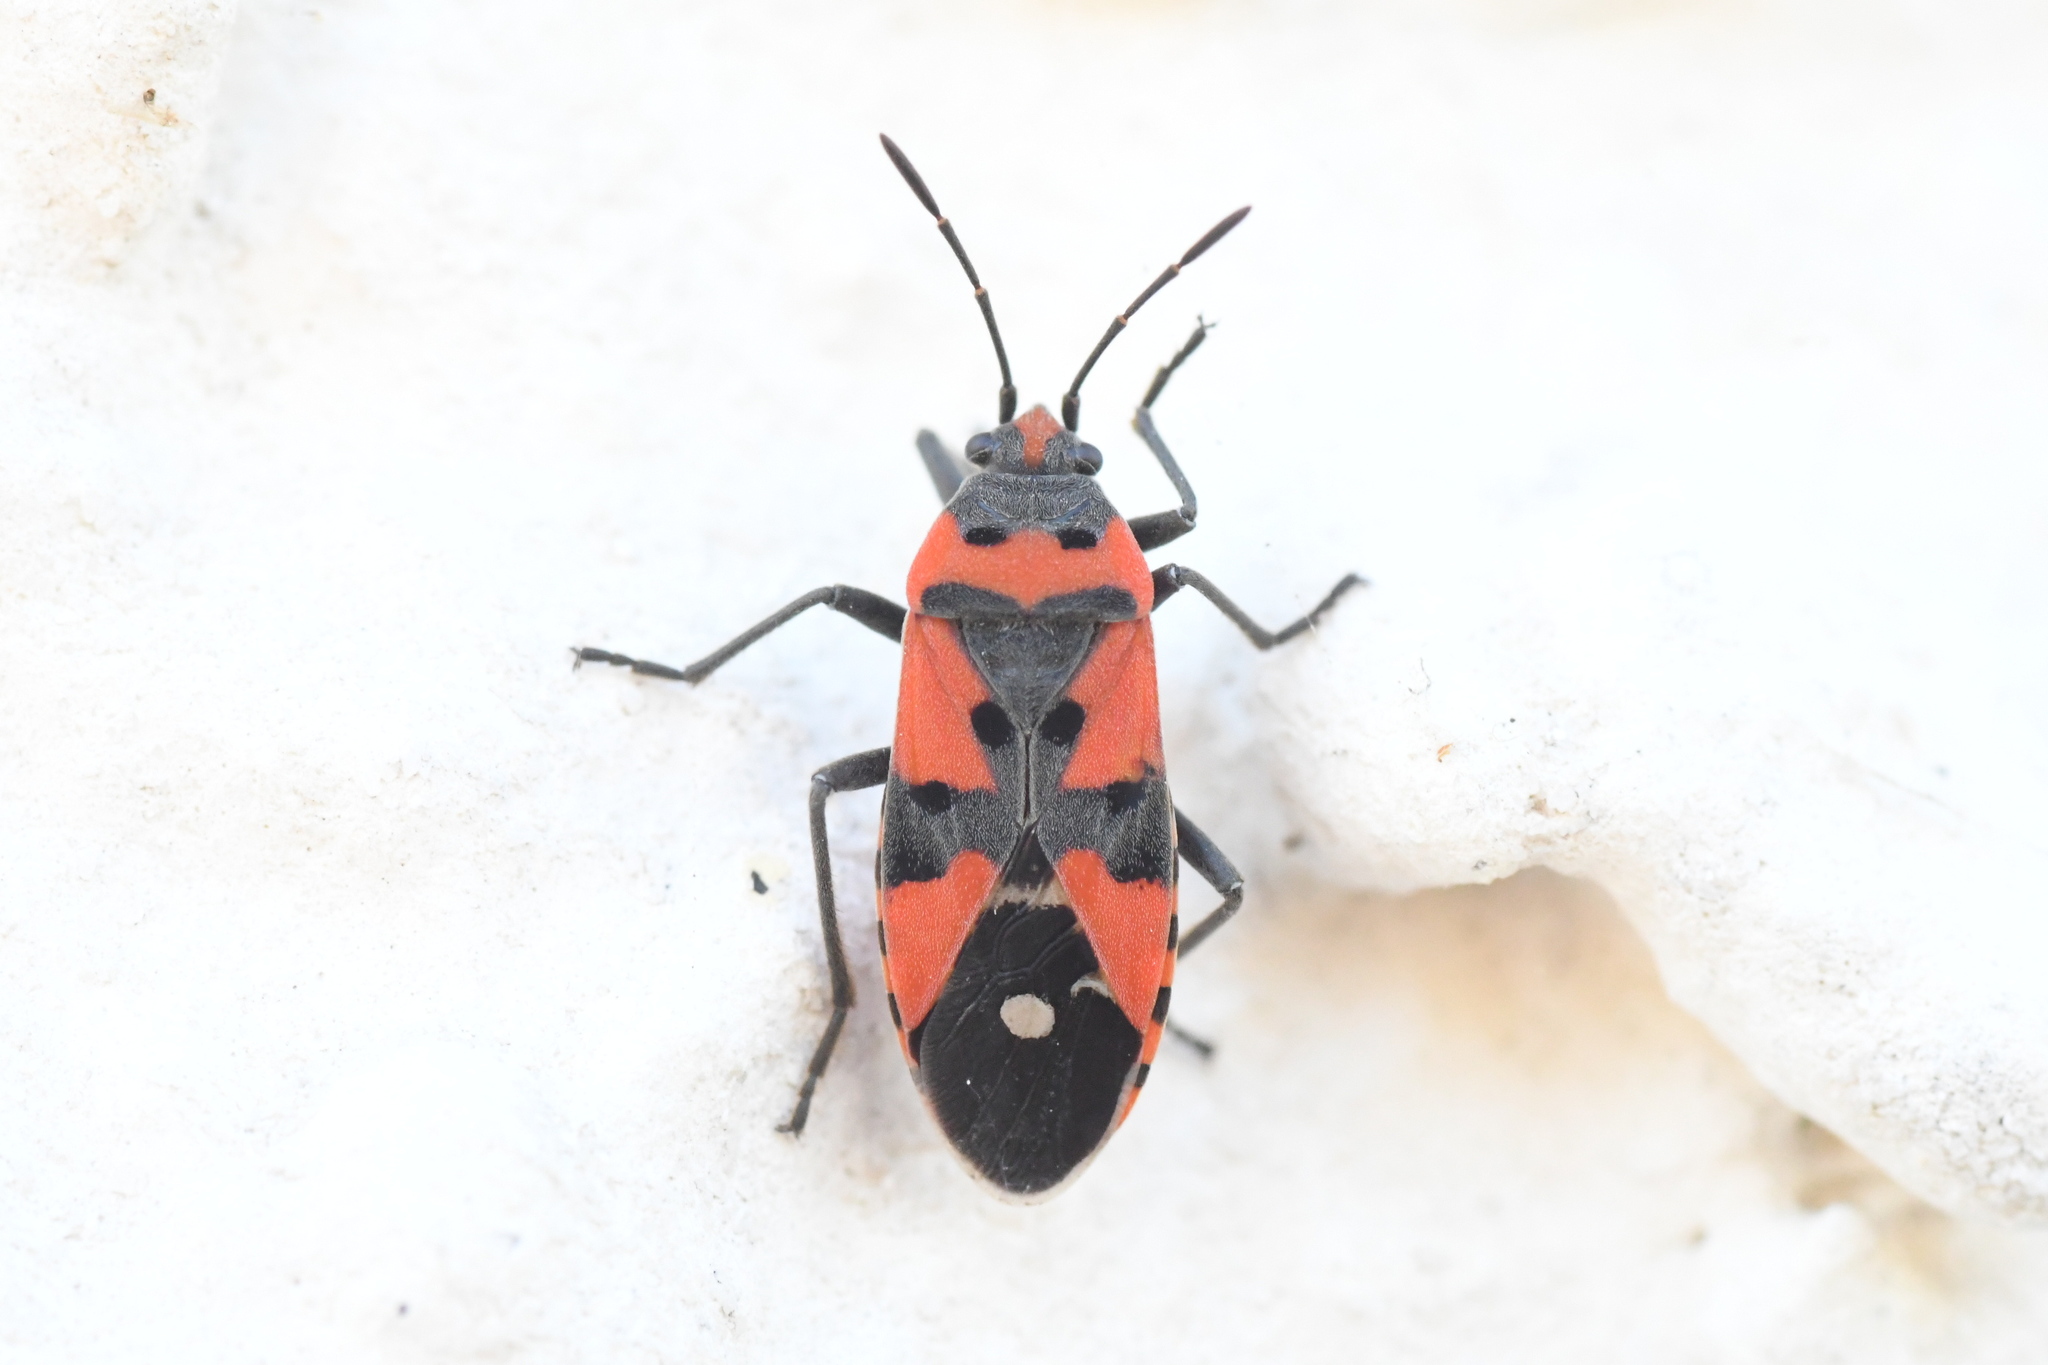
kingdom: Animalia
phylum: Arthropoda
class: Insecta
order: Hemiptera
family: Lygaeidae
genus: Lygaeus
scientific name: Lygaeus equestris
